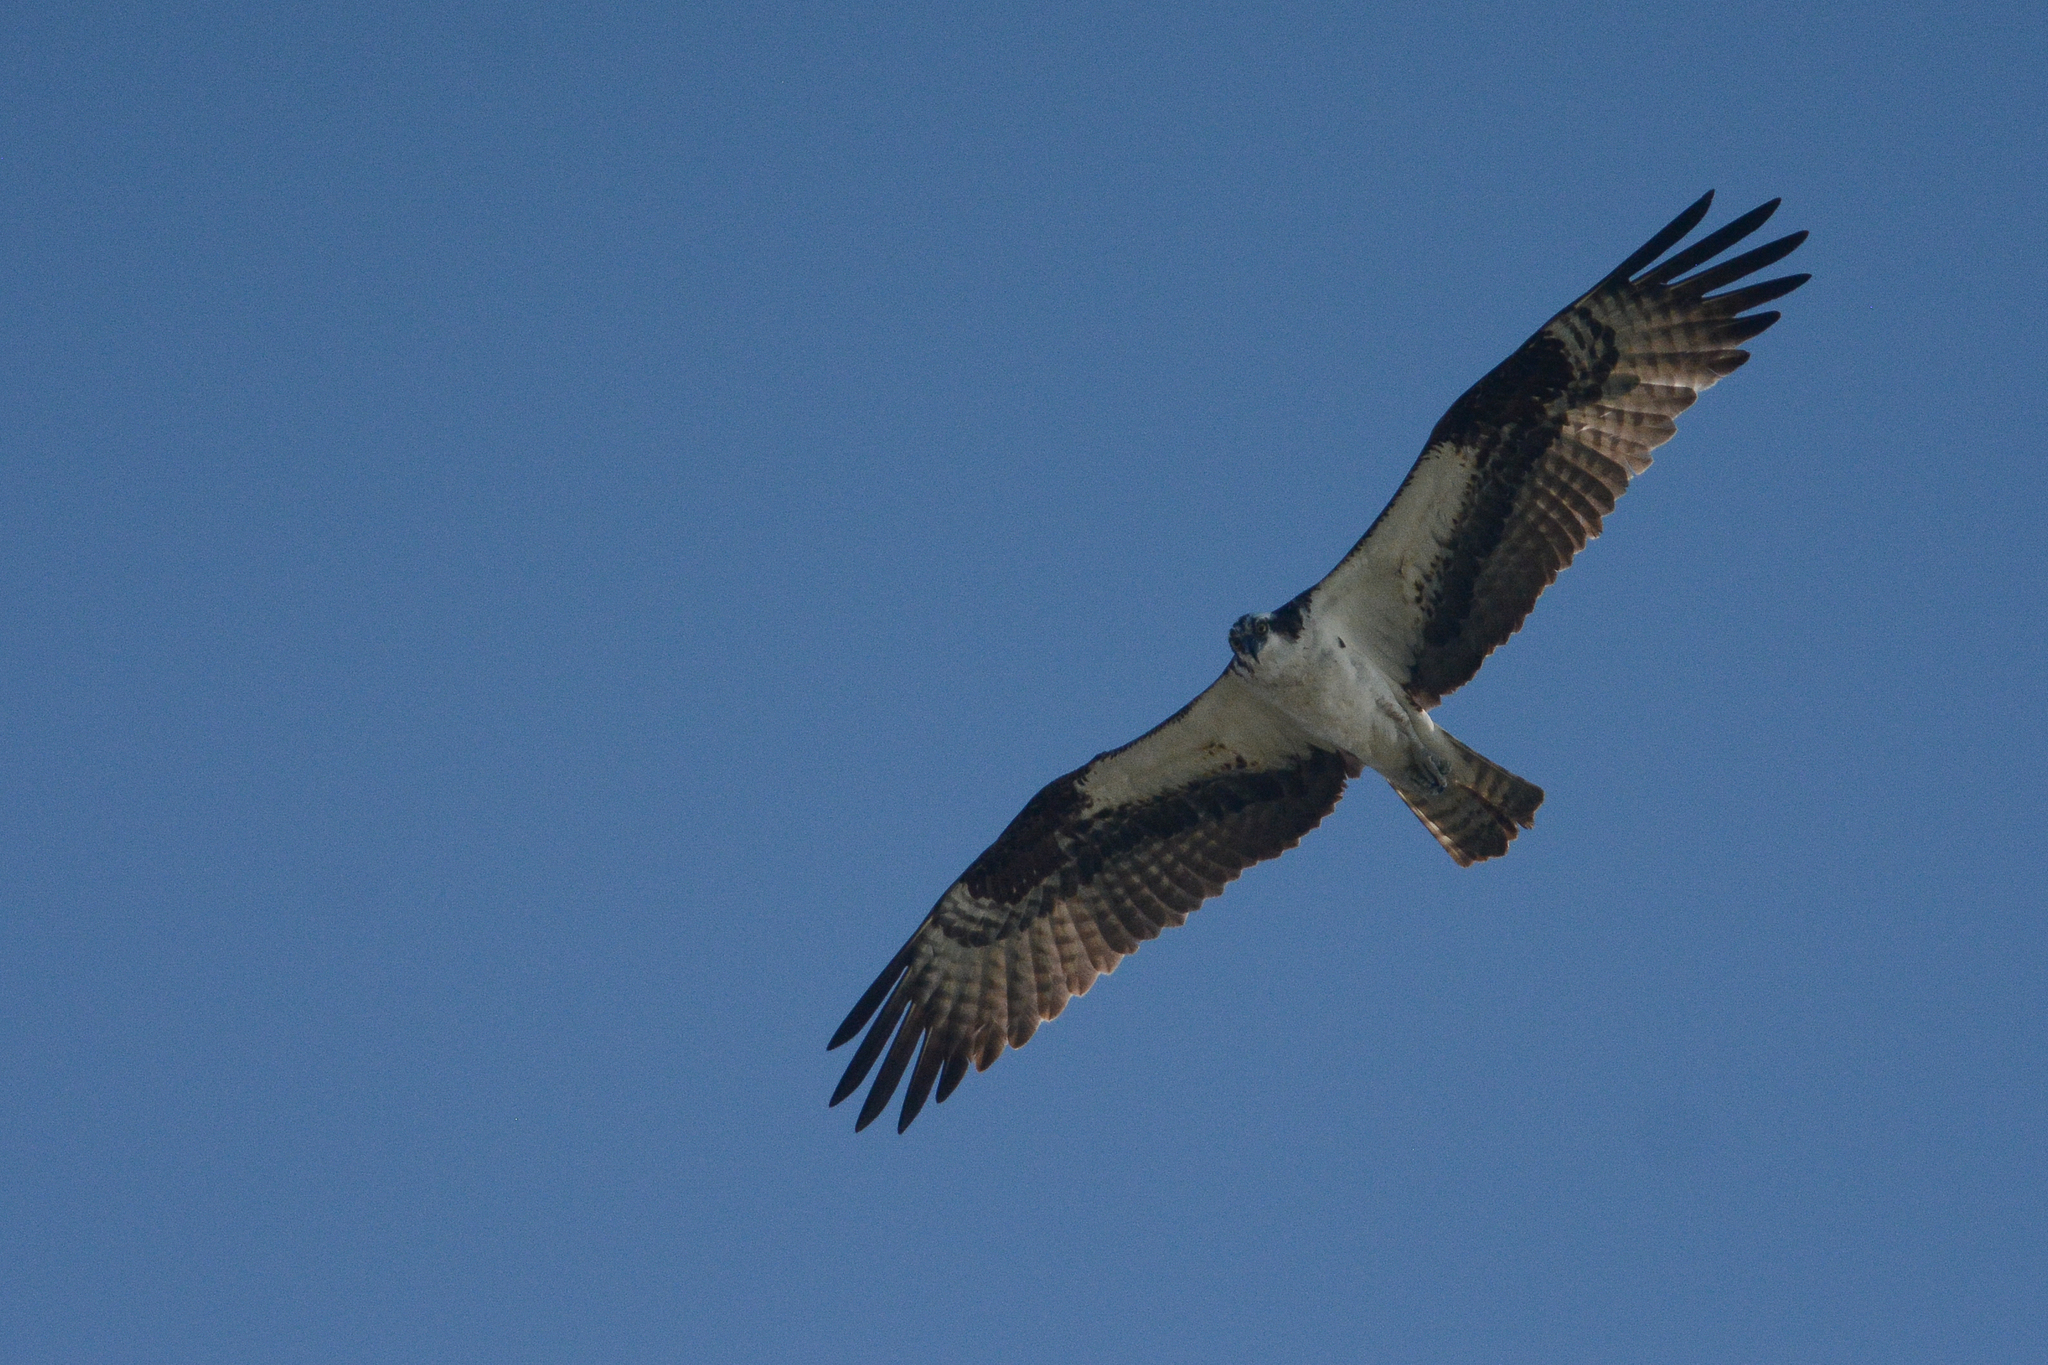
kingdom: Animalia
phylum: Chordata
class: Aves
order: Accipitriformes
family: Pandionidae
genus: Pandion
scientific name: Pandion haliaetus
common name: Osprey
